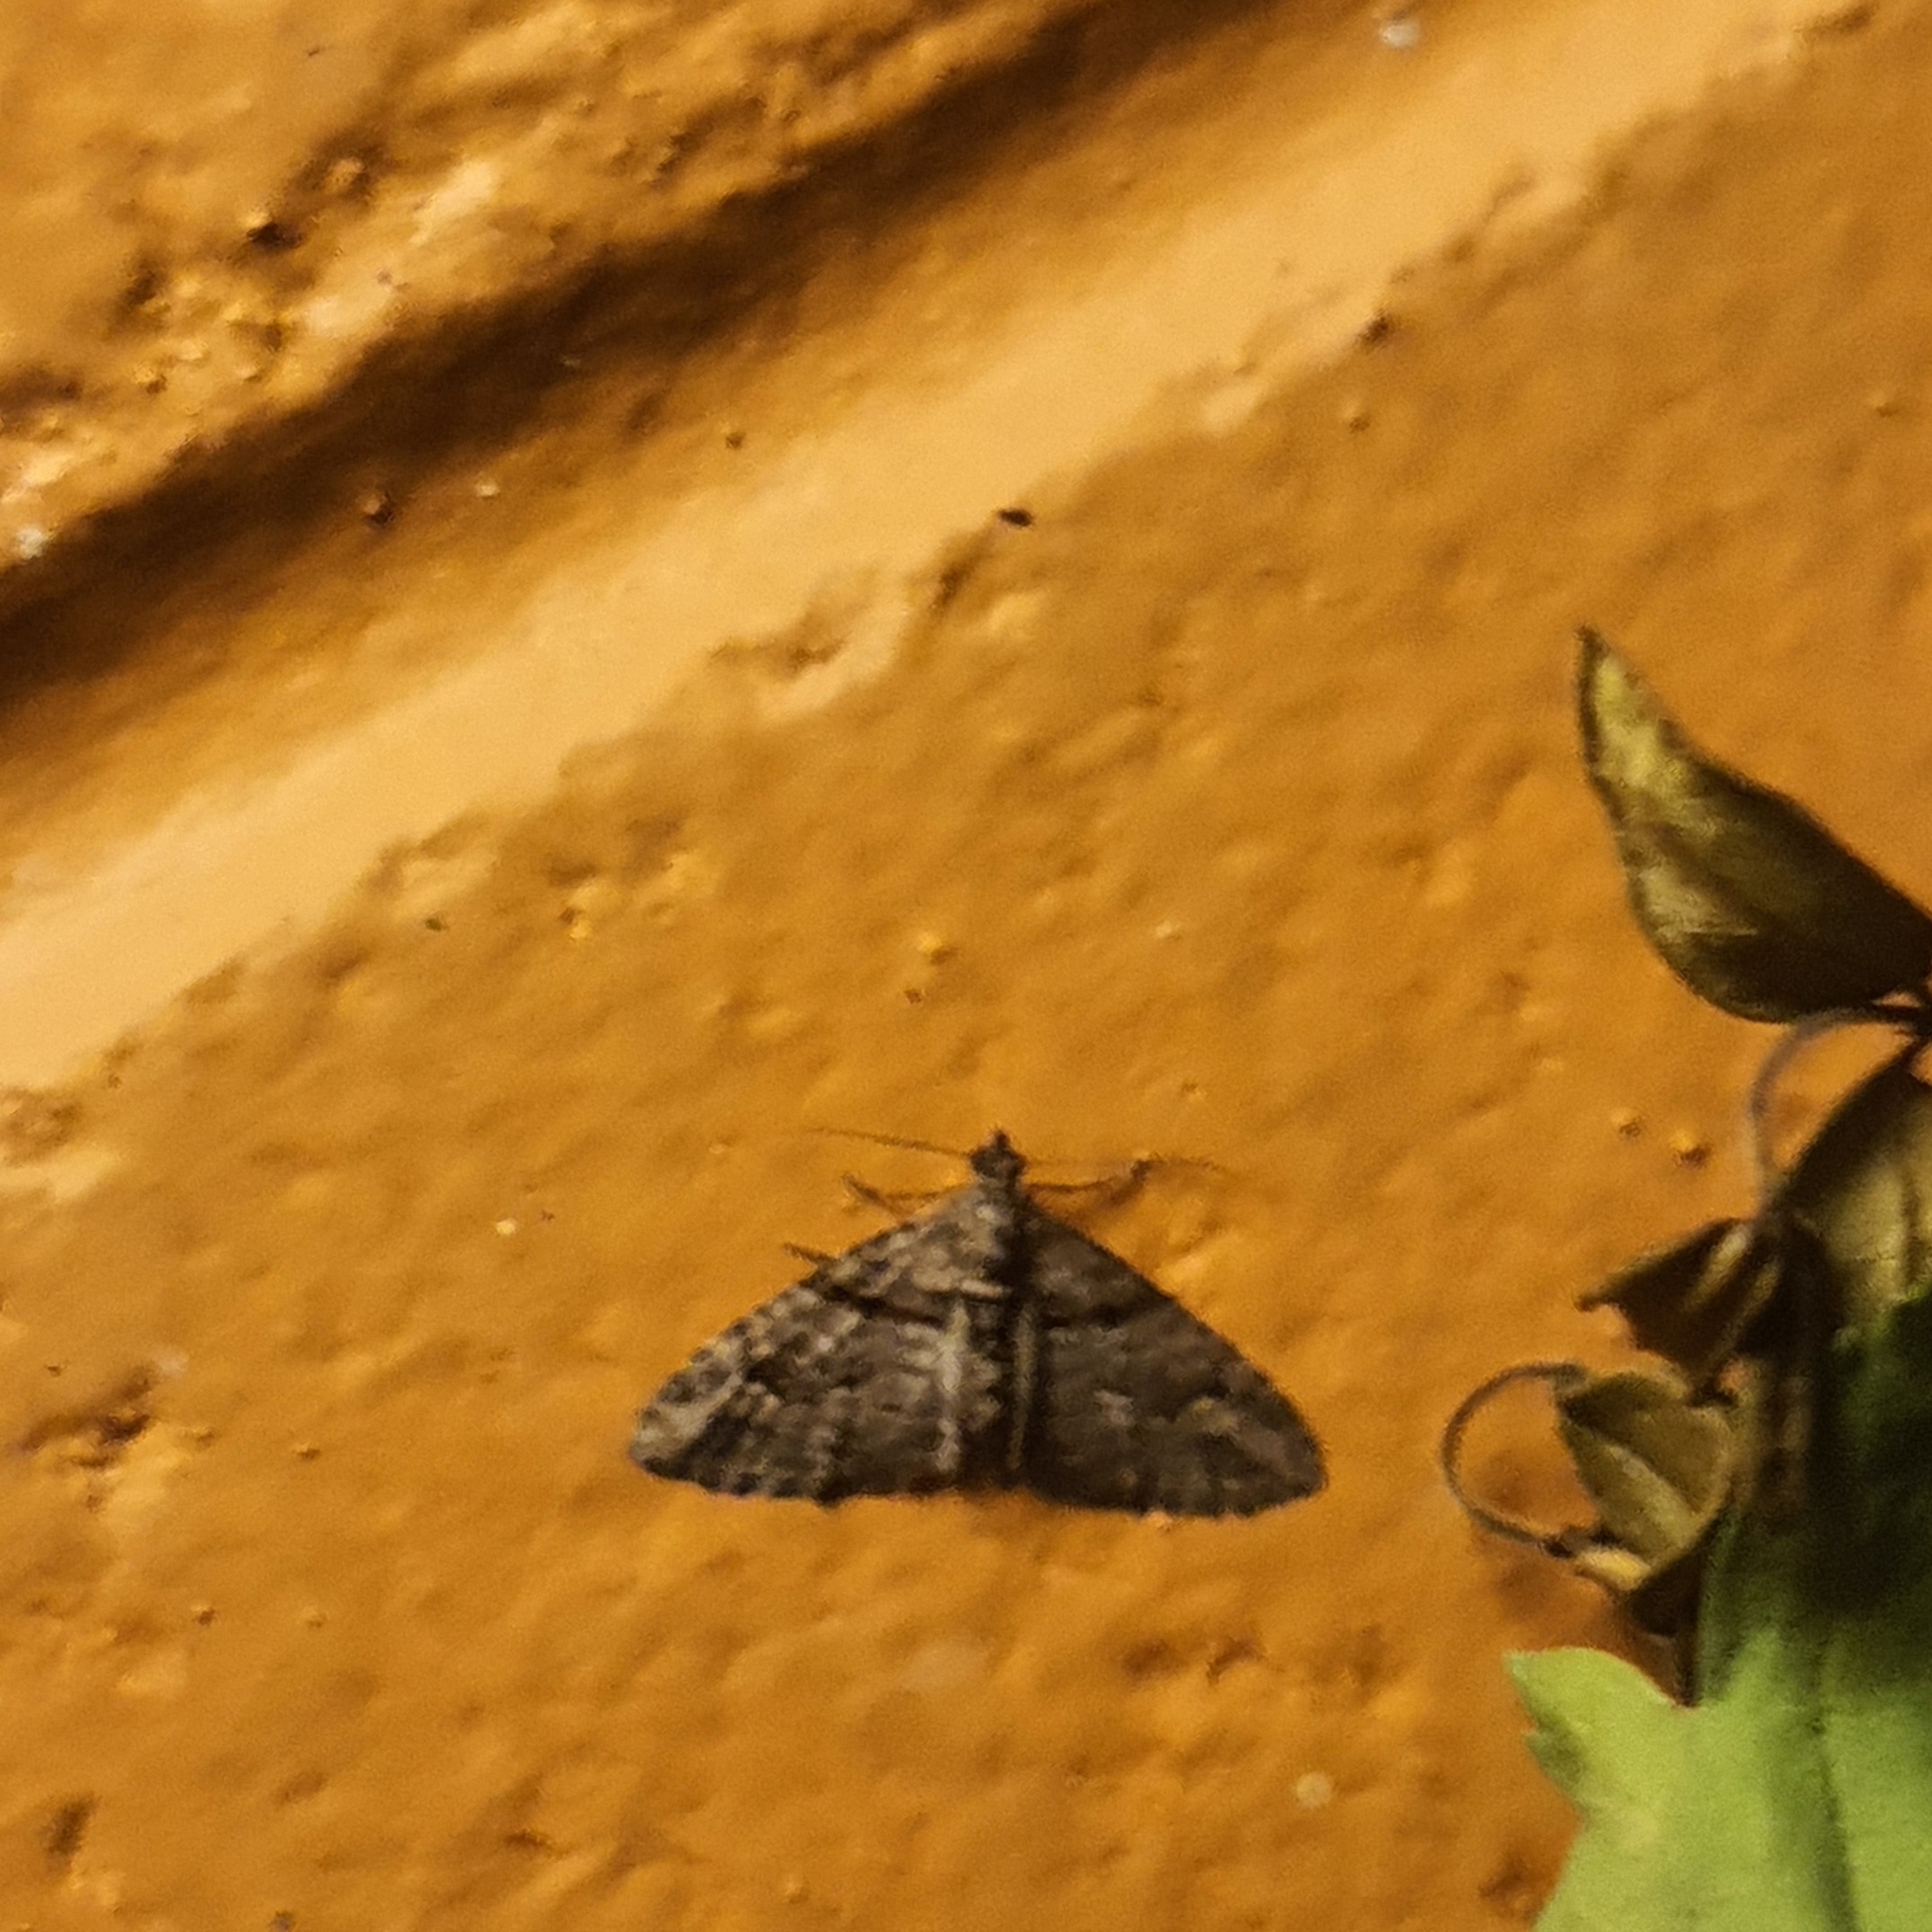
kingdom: Animalia
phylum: Arthropoda
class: Insecta
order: Lepidoptera
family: Geometridae
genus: Phrissogonus
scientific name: Phrissogonus laticostata
